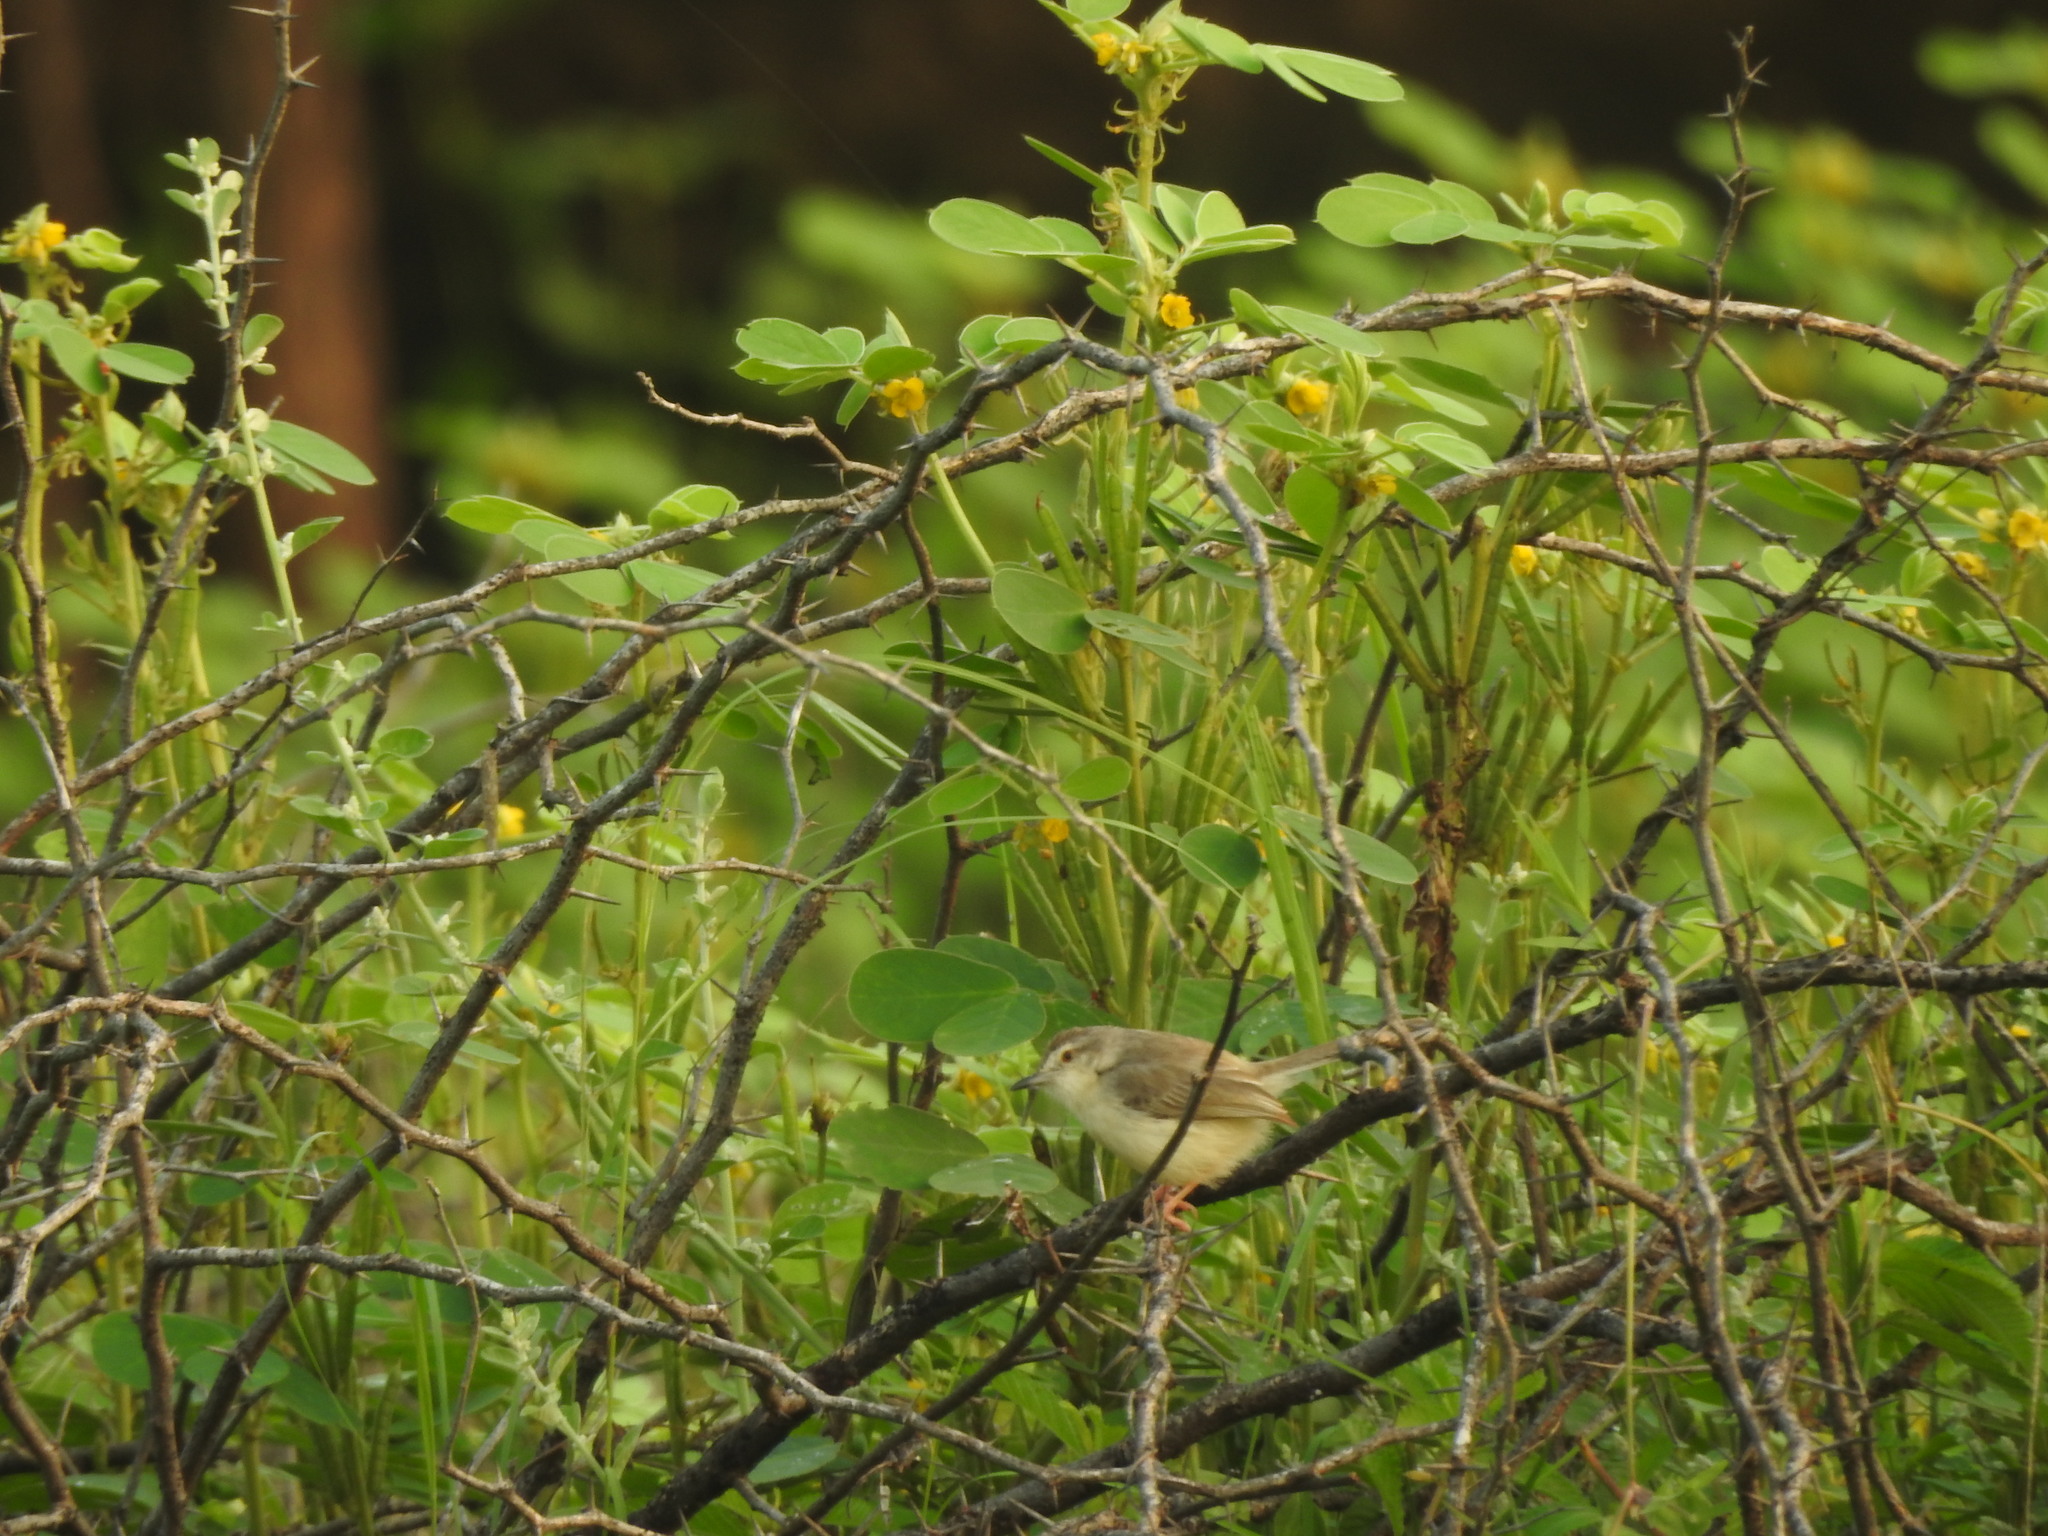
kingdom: Animalia
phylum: Chordata
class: Aves
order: Passeriformes
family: Cisticolidae
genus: Prinia
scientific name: Prinia inornata
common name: Plain prinia
